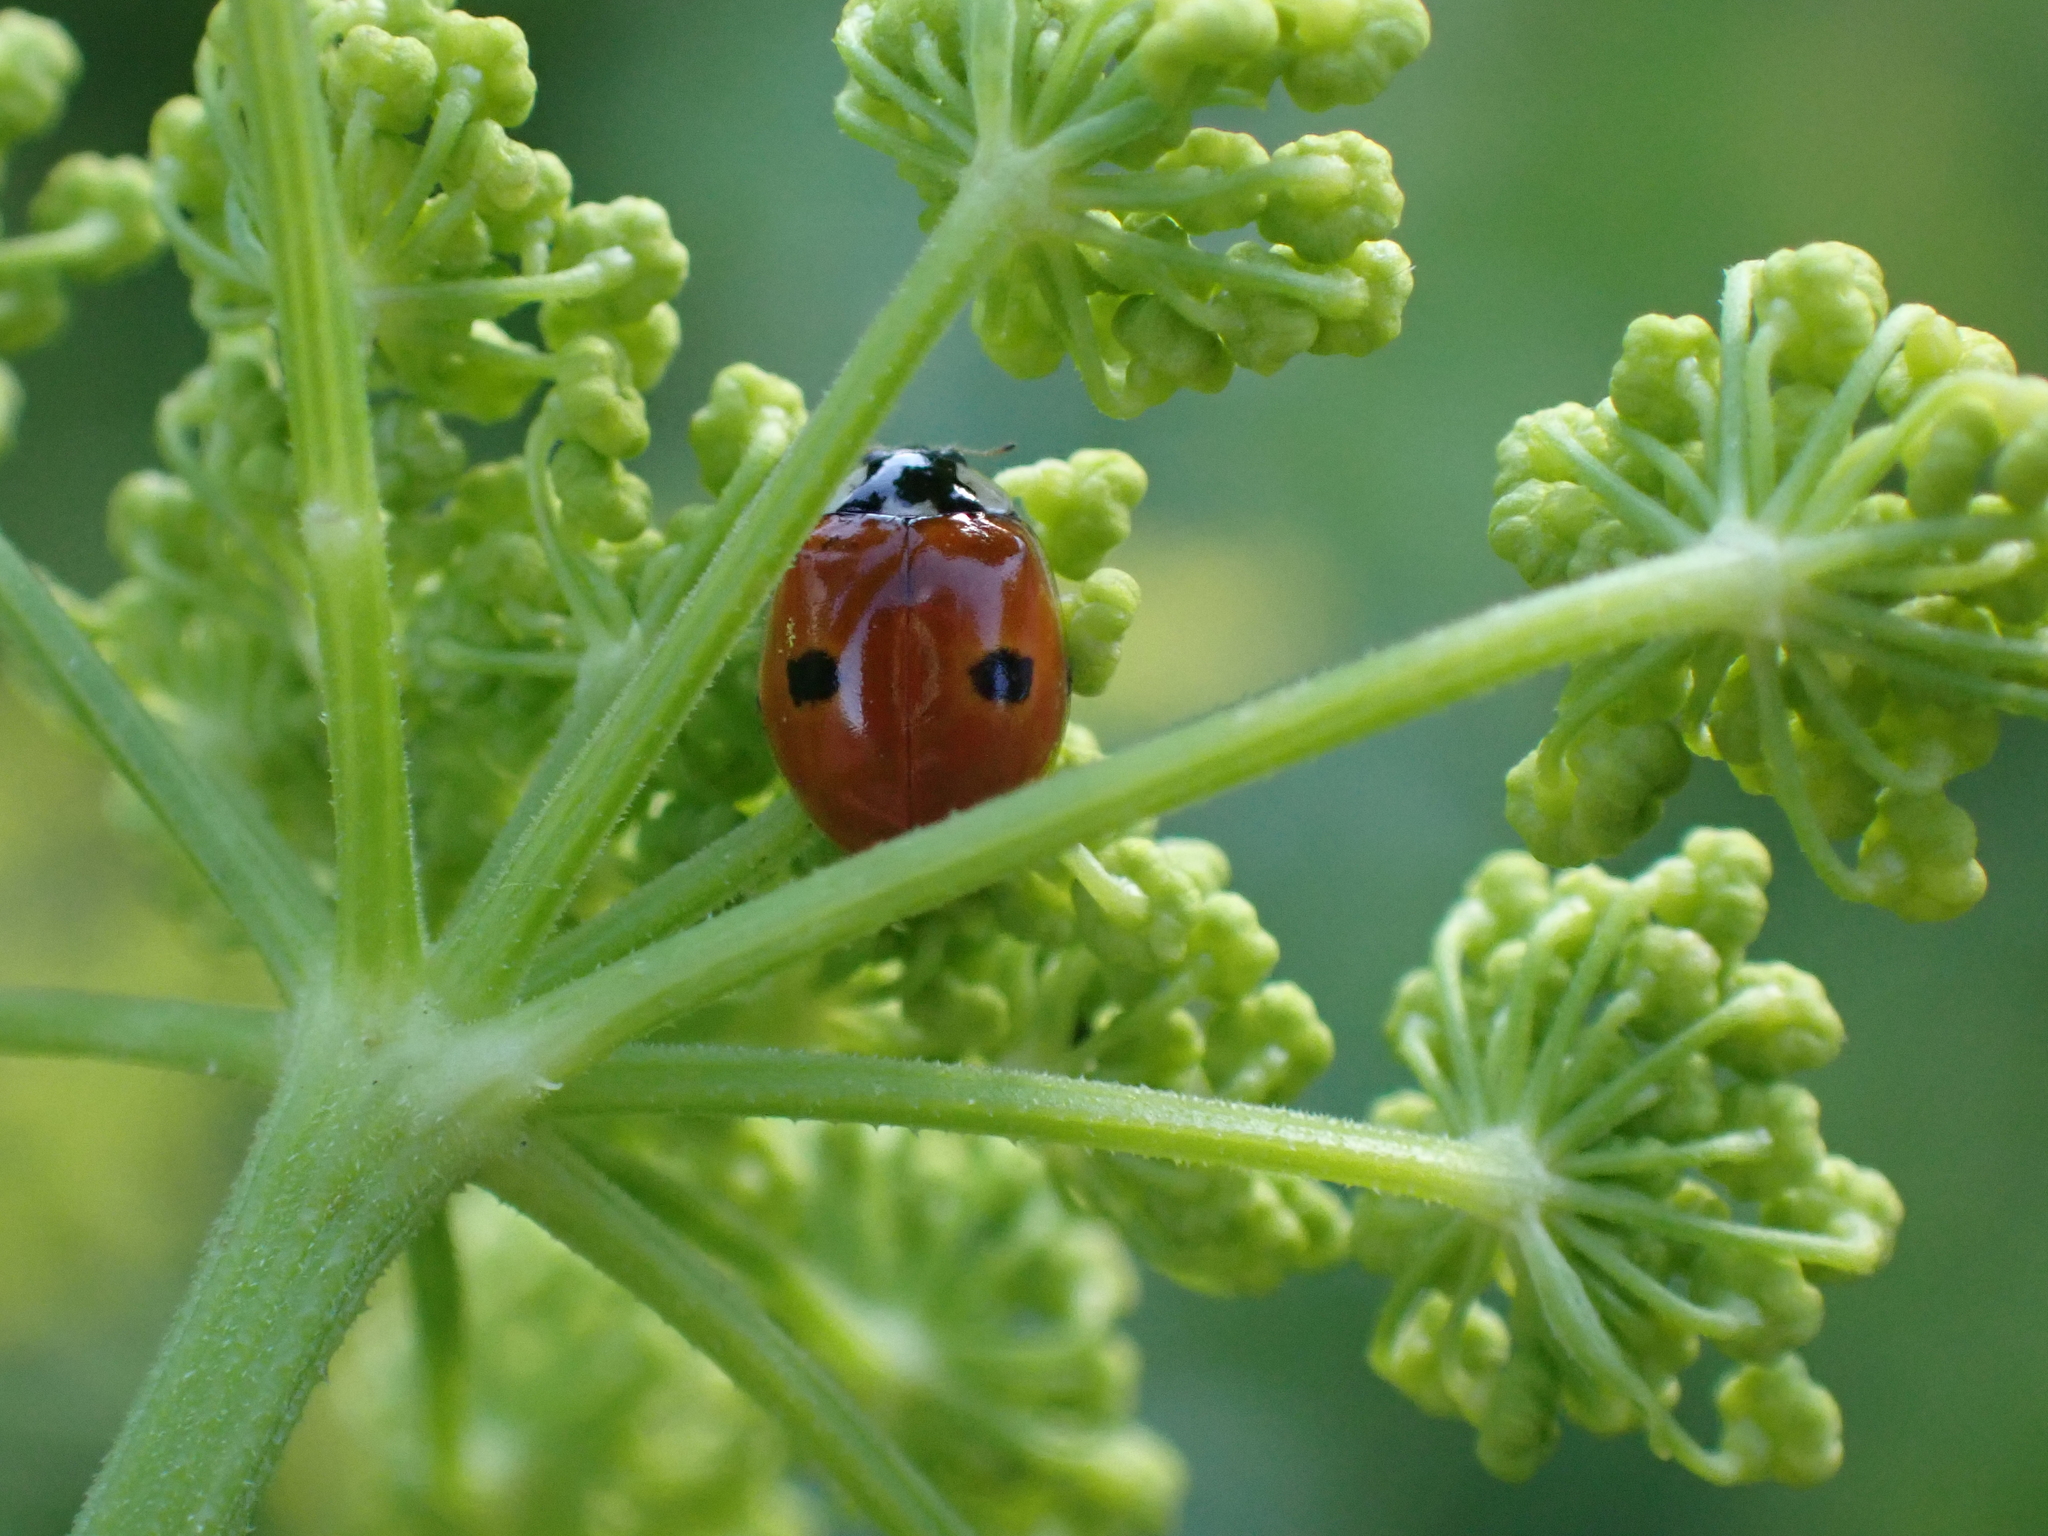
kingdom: Animalia
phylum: Arthropoda
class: Insecta
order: Coleoptera
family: Coccinellidae
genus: Adalia
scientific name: Adalia bipunctata
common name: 2-spot ladybird
